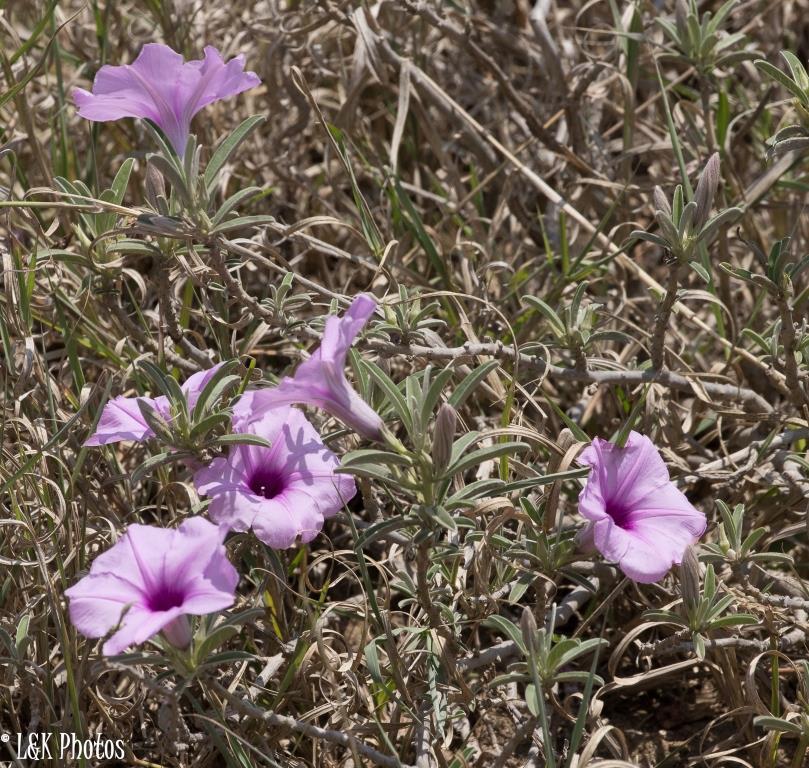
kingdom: Plantae
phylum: Tracheophyta
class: Magnoliopsida
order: Solanales
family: Convolvulaceae
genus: Ipomoea
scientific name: Ipomoea jaegeri
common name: Morningglory
